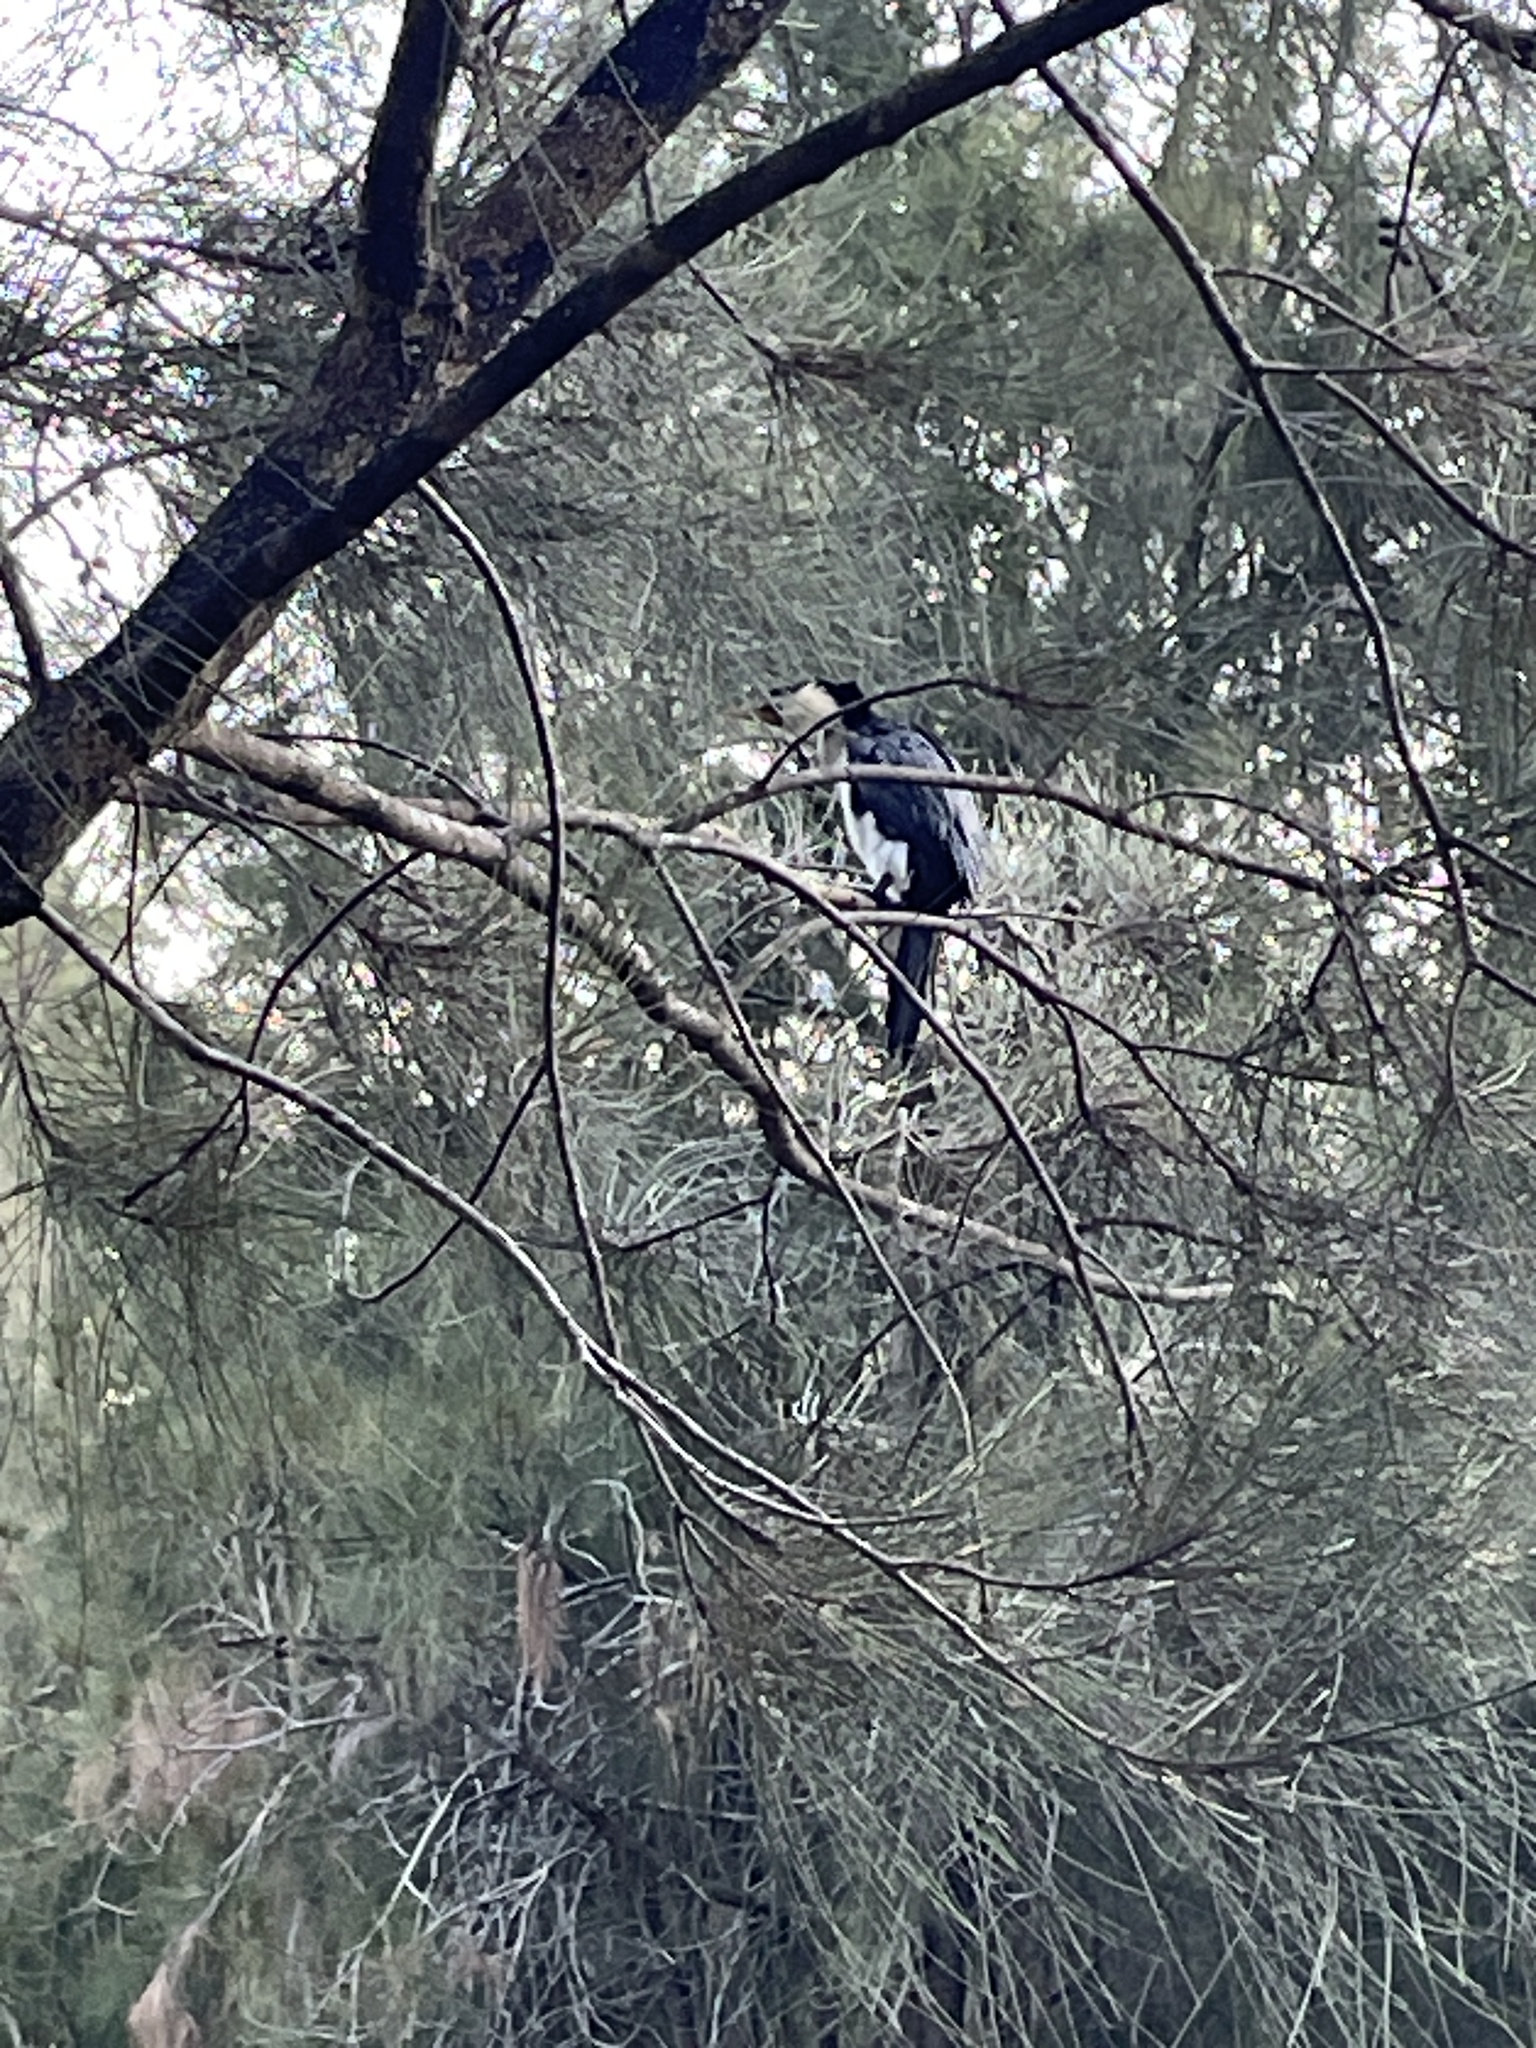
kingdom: Animalia
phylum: Chordata
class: Aves
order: Suliformes
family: Phalacrocoracidae
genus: Microcarbo
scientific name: Microcarbo melanoleucos
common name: Little pied cormorant
